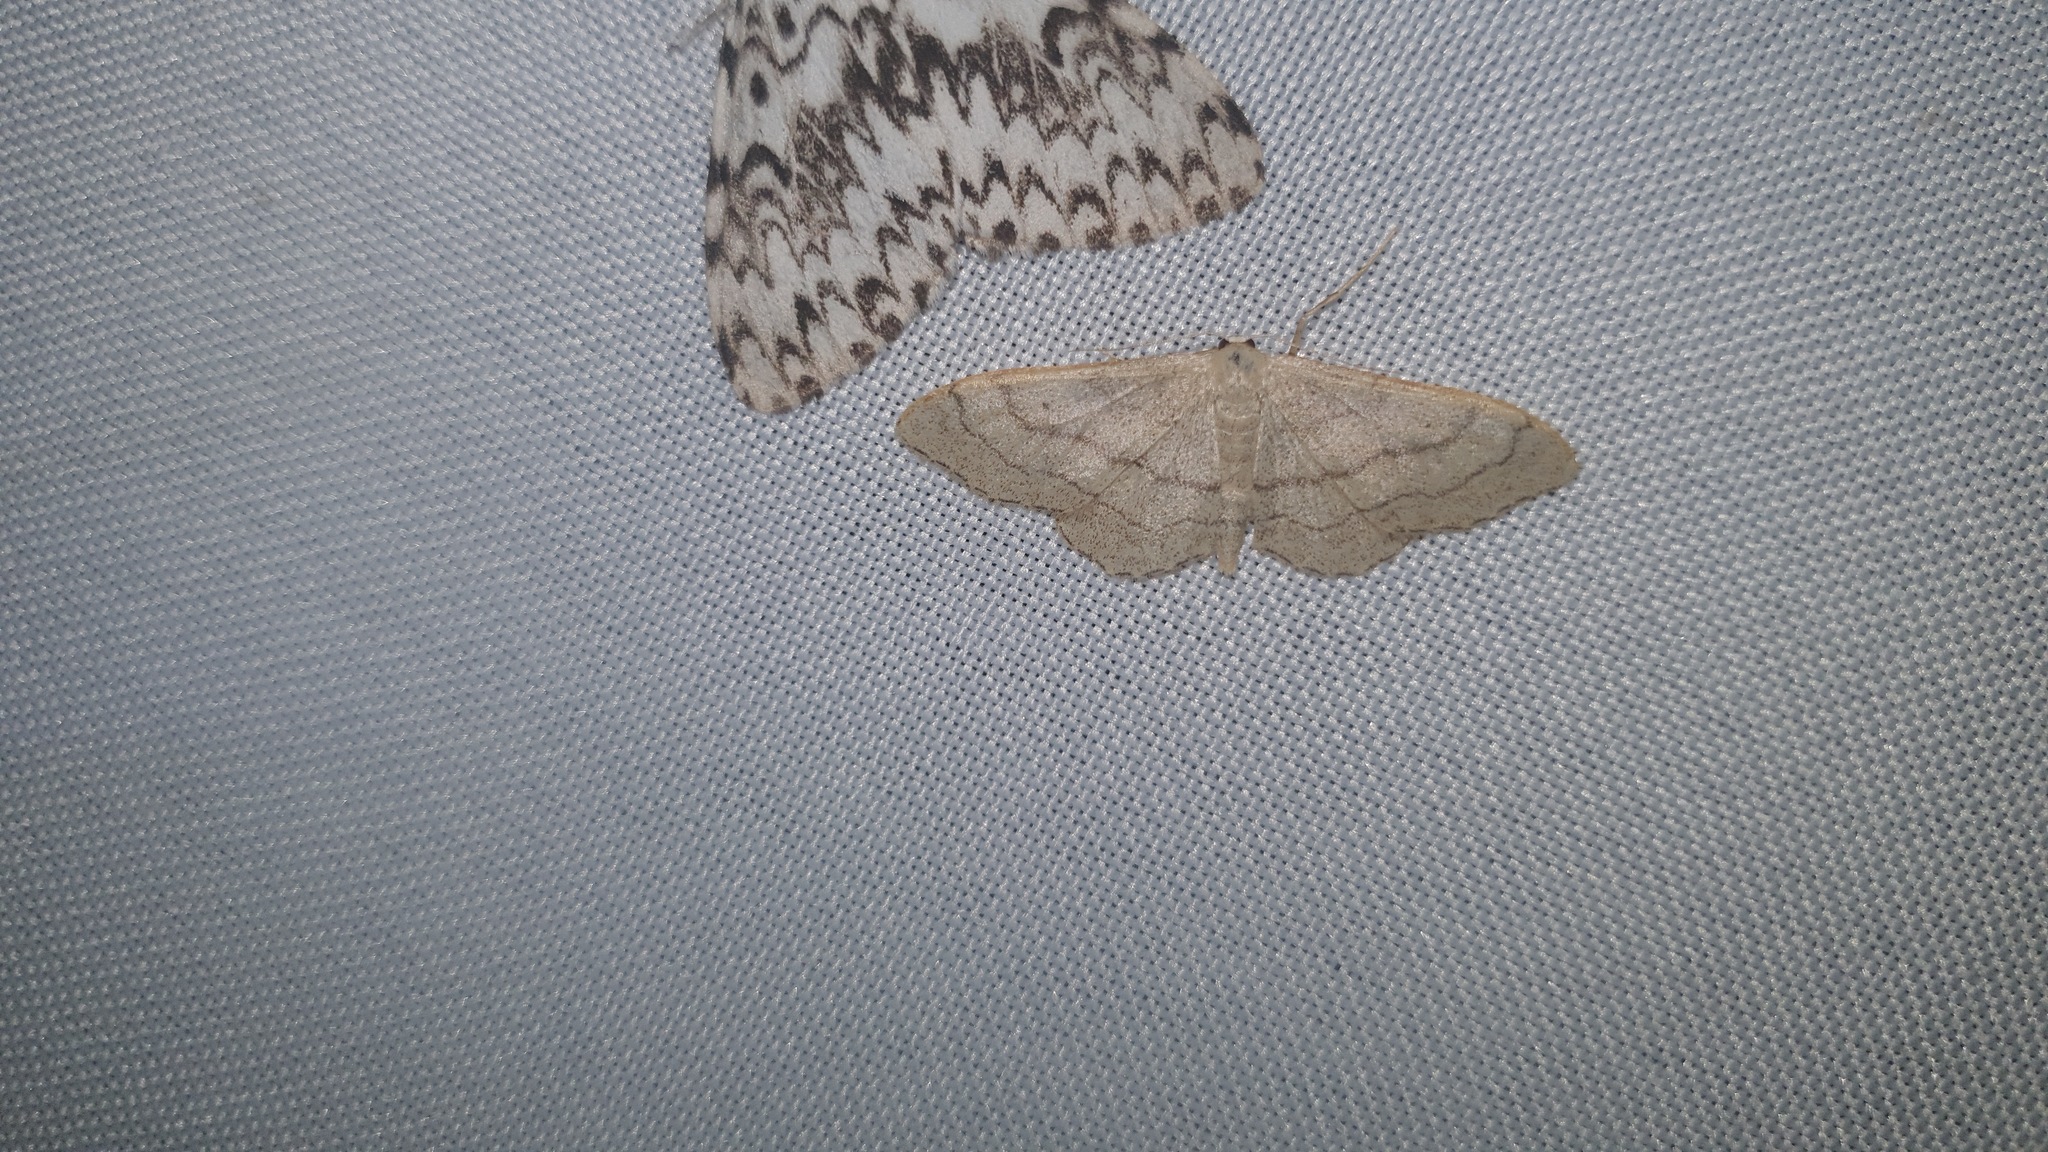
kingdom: Animalia
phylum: Arthropoda
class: Insecta
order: Lepidoptera
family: Geometridae
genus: Idaea
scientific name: Idaea aversata
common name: Riband wave
